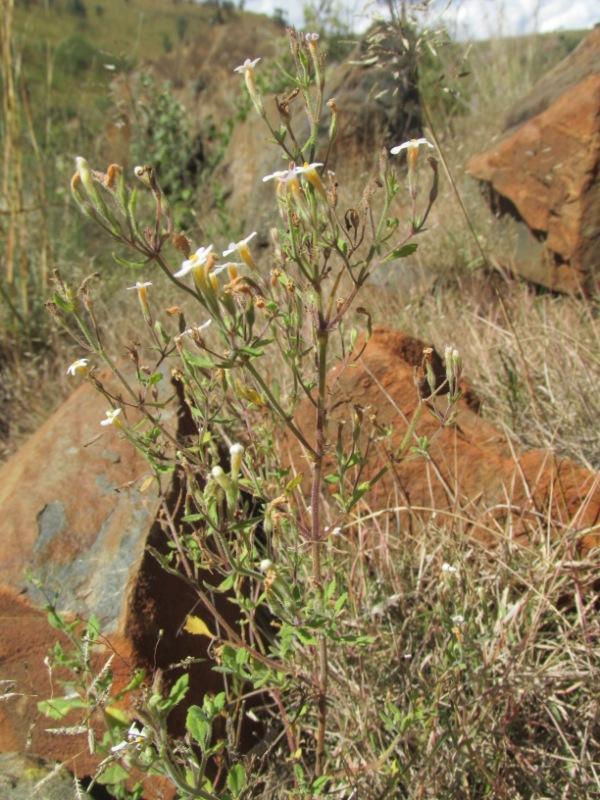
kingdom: Plantae
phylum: Tracheophyta
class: Magnoliopsida
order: Lamiales
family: Scrophulariaceae
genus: Chaenostoma
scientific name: Chaenostoma floribundum
